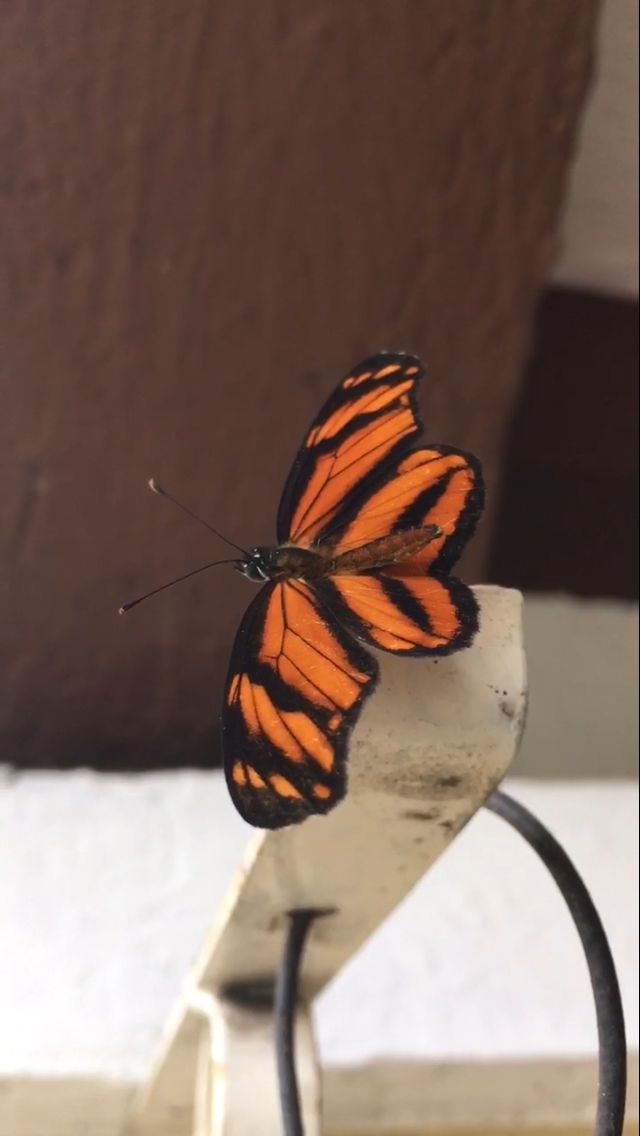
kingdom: Animalia
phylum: Arthropoda
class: Insecta
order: Lepidoptera
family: Nymphalidae
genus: Eresia
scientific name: Eresia phillyra
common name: Longwing crescent
